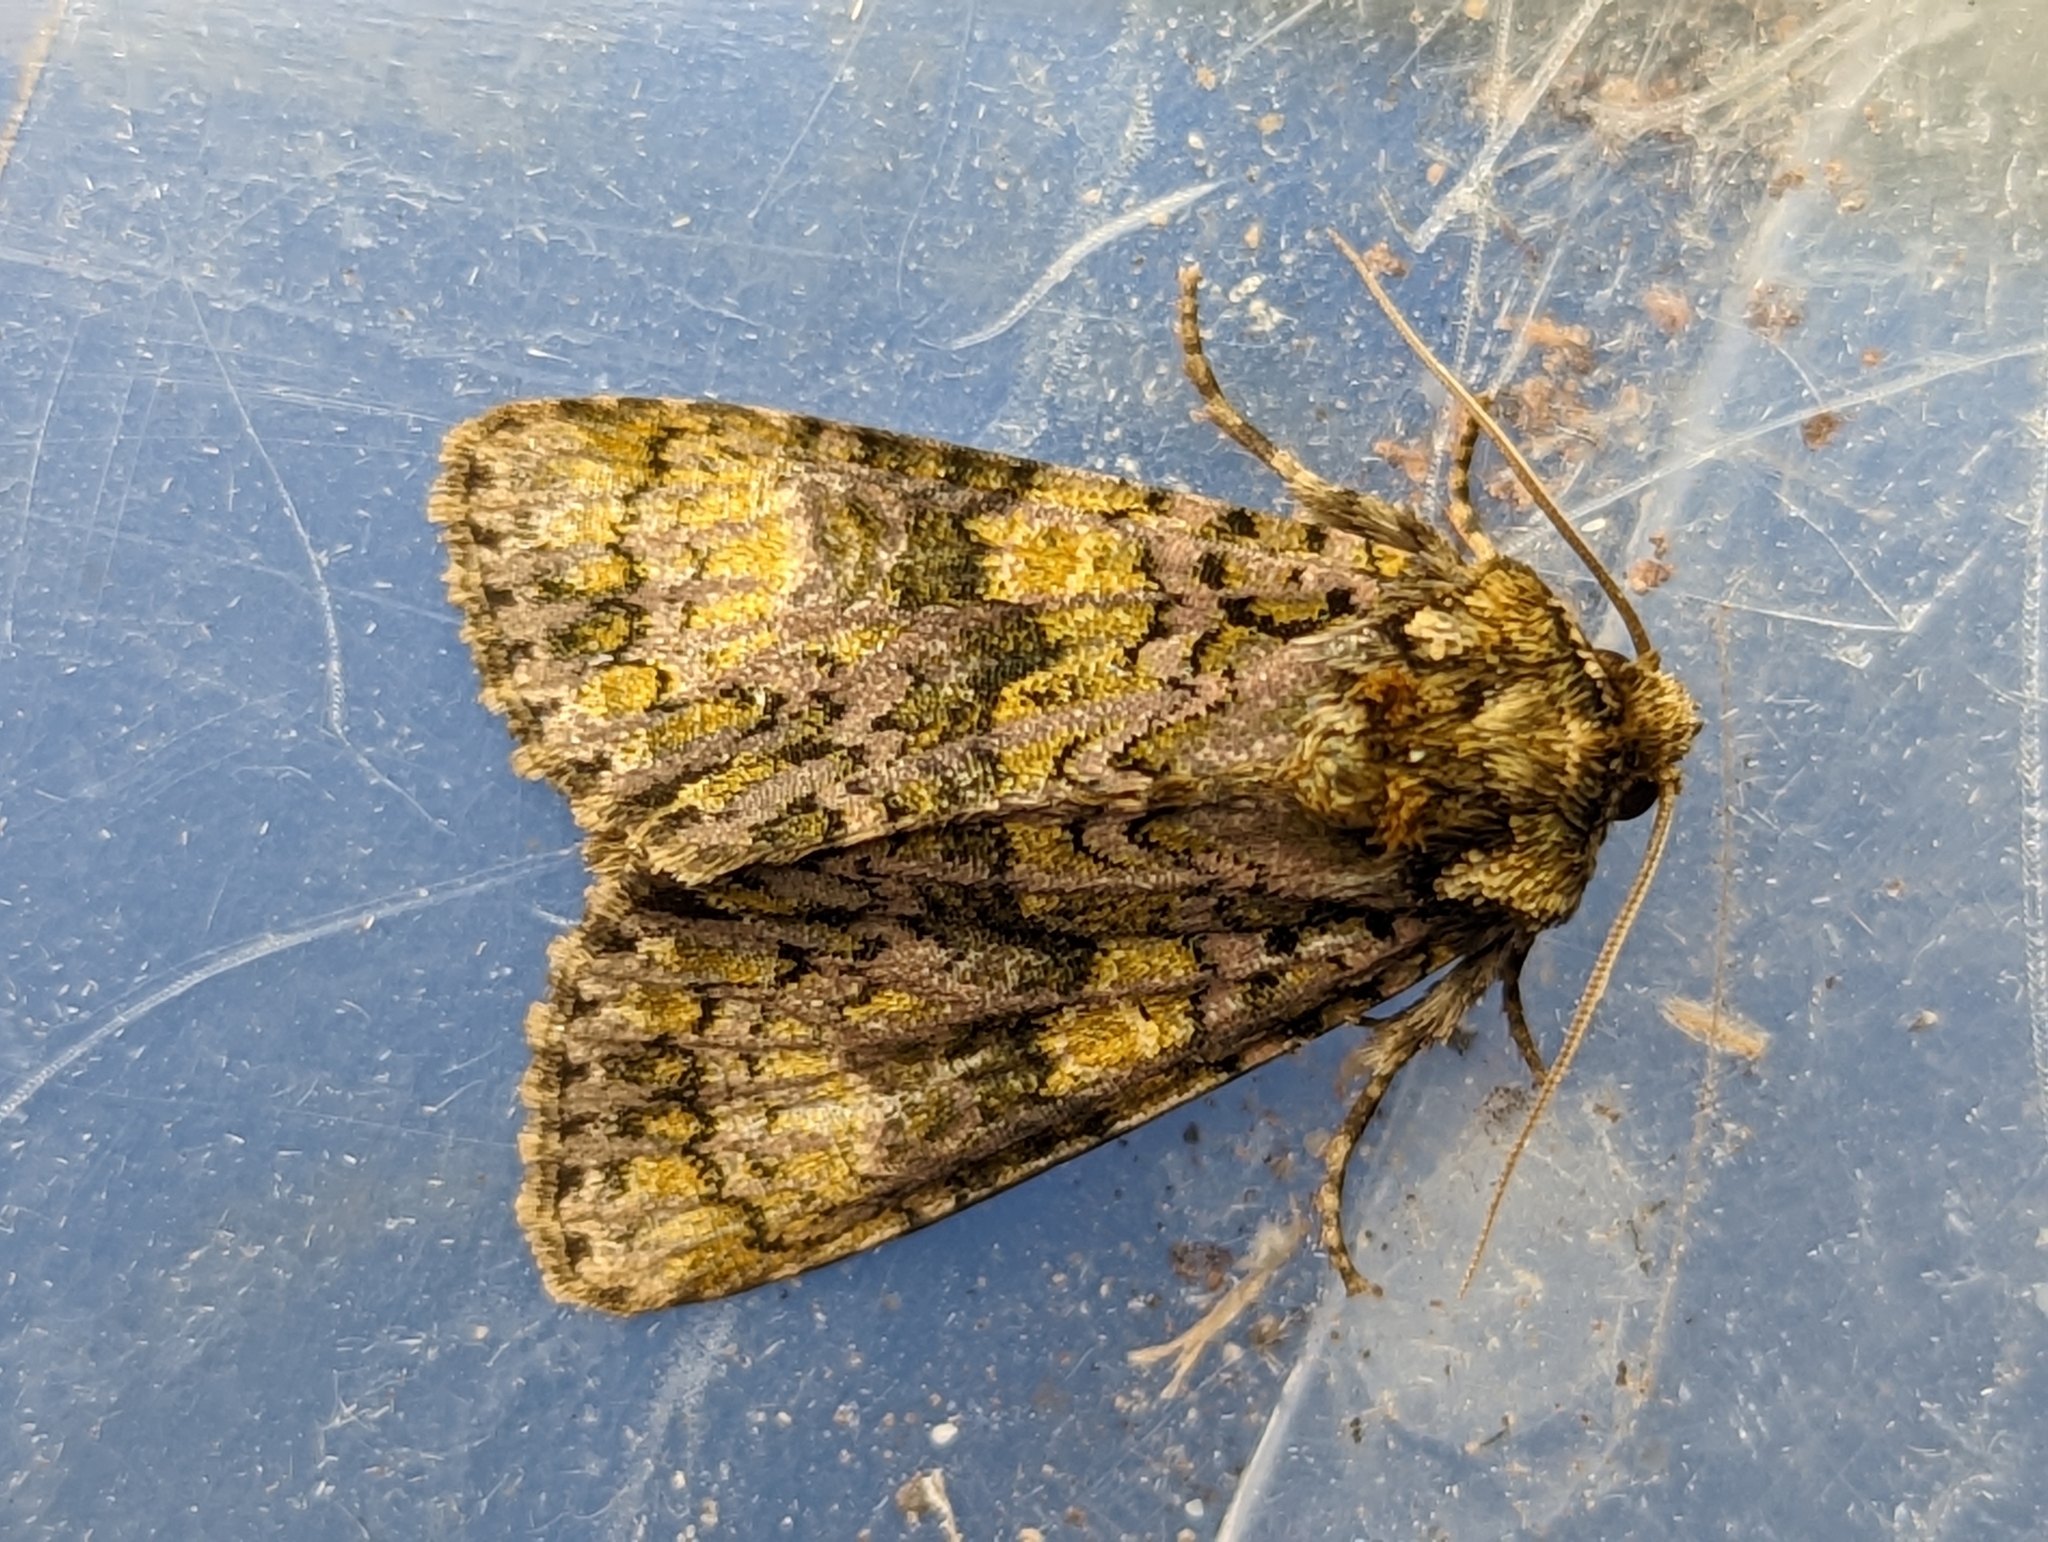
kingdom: Animalia
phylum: Arthropoda
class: Insecta
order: Lepidoptera
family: Noctuidae
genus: Craniophora
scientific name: Craniophora ligustri
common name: Coronet
